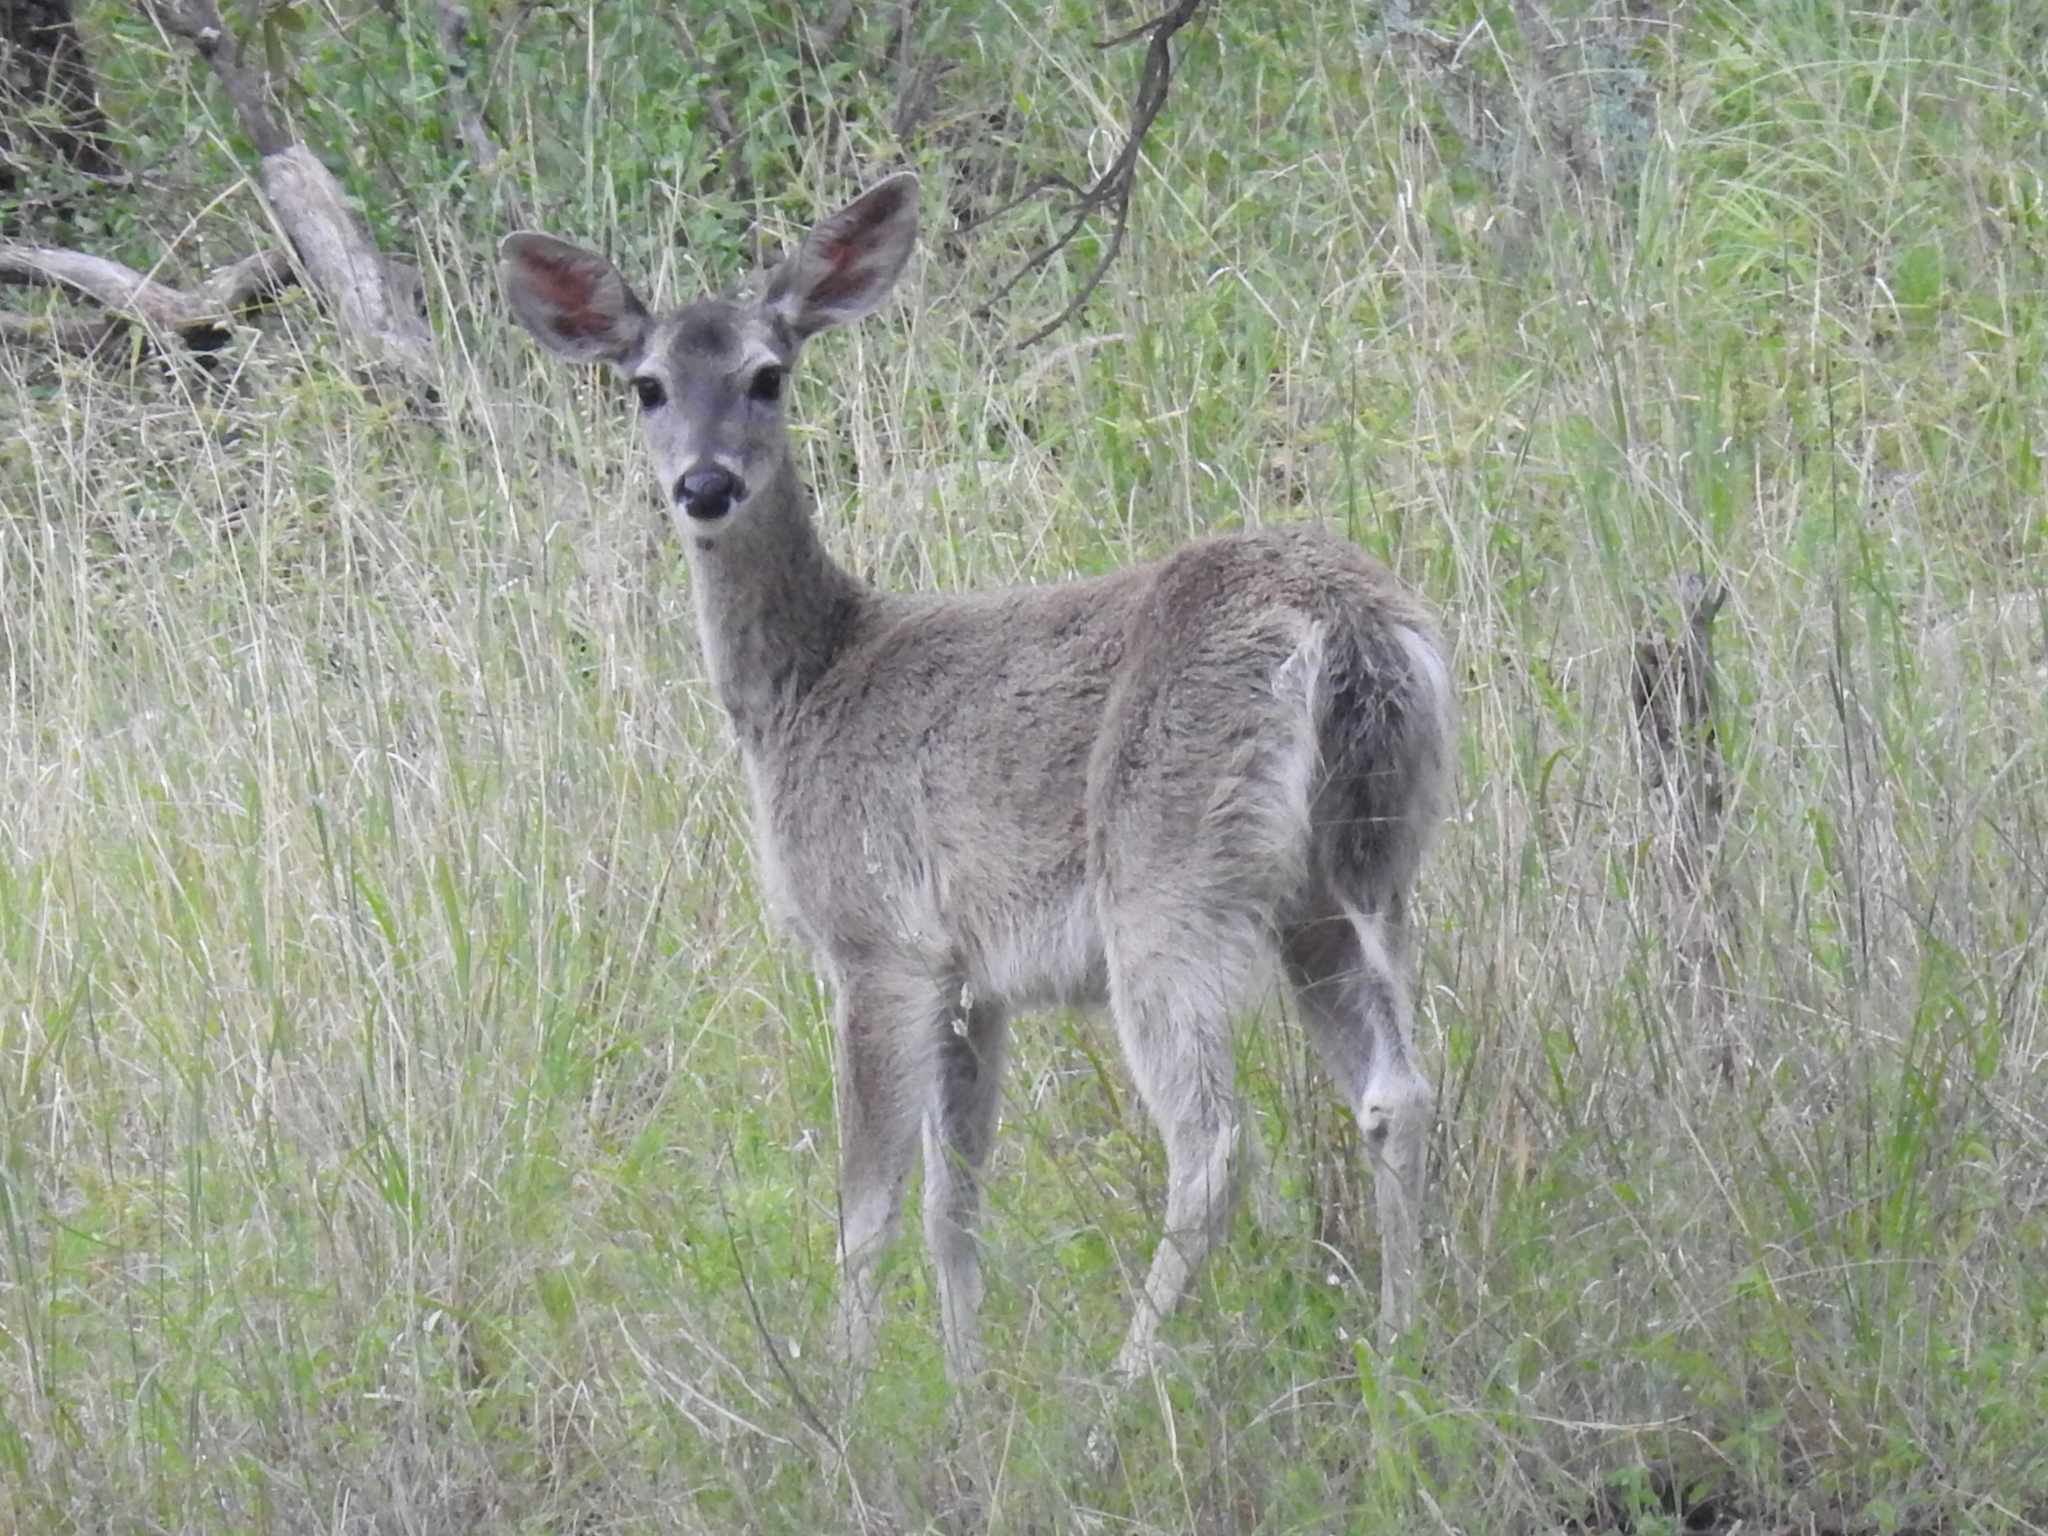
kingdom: Animalia
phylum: Chordata
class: Mammalia
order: Artiodactyla
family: Cervidae
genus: Odocoileus
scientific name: Odocoileus virginianus
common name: White-tailed deer
